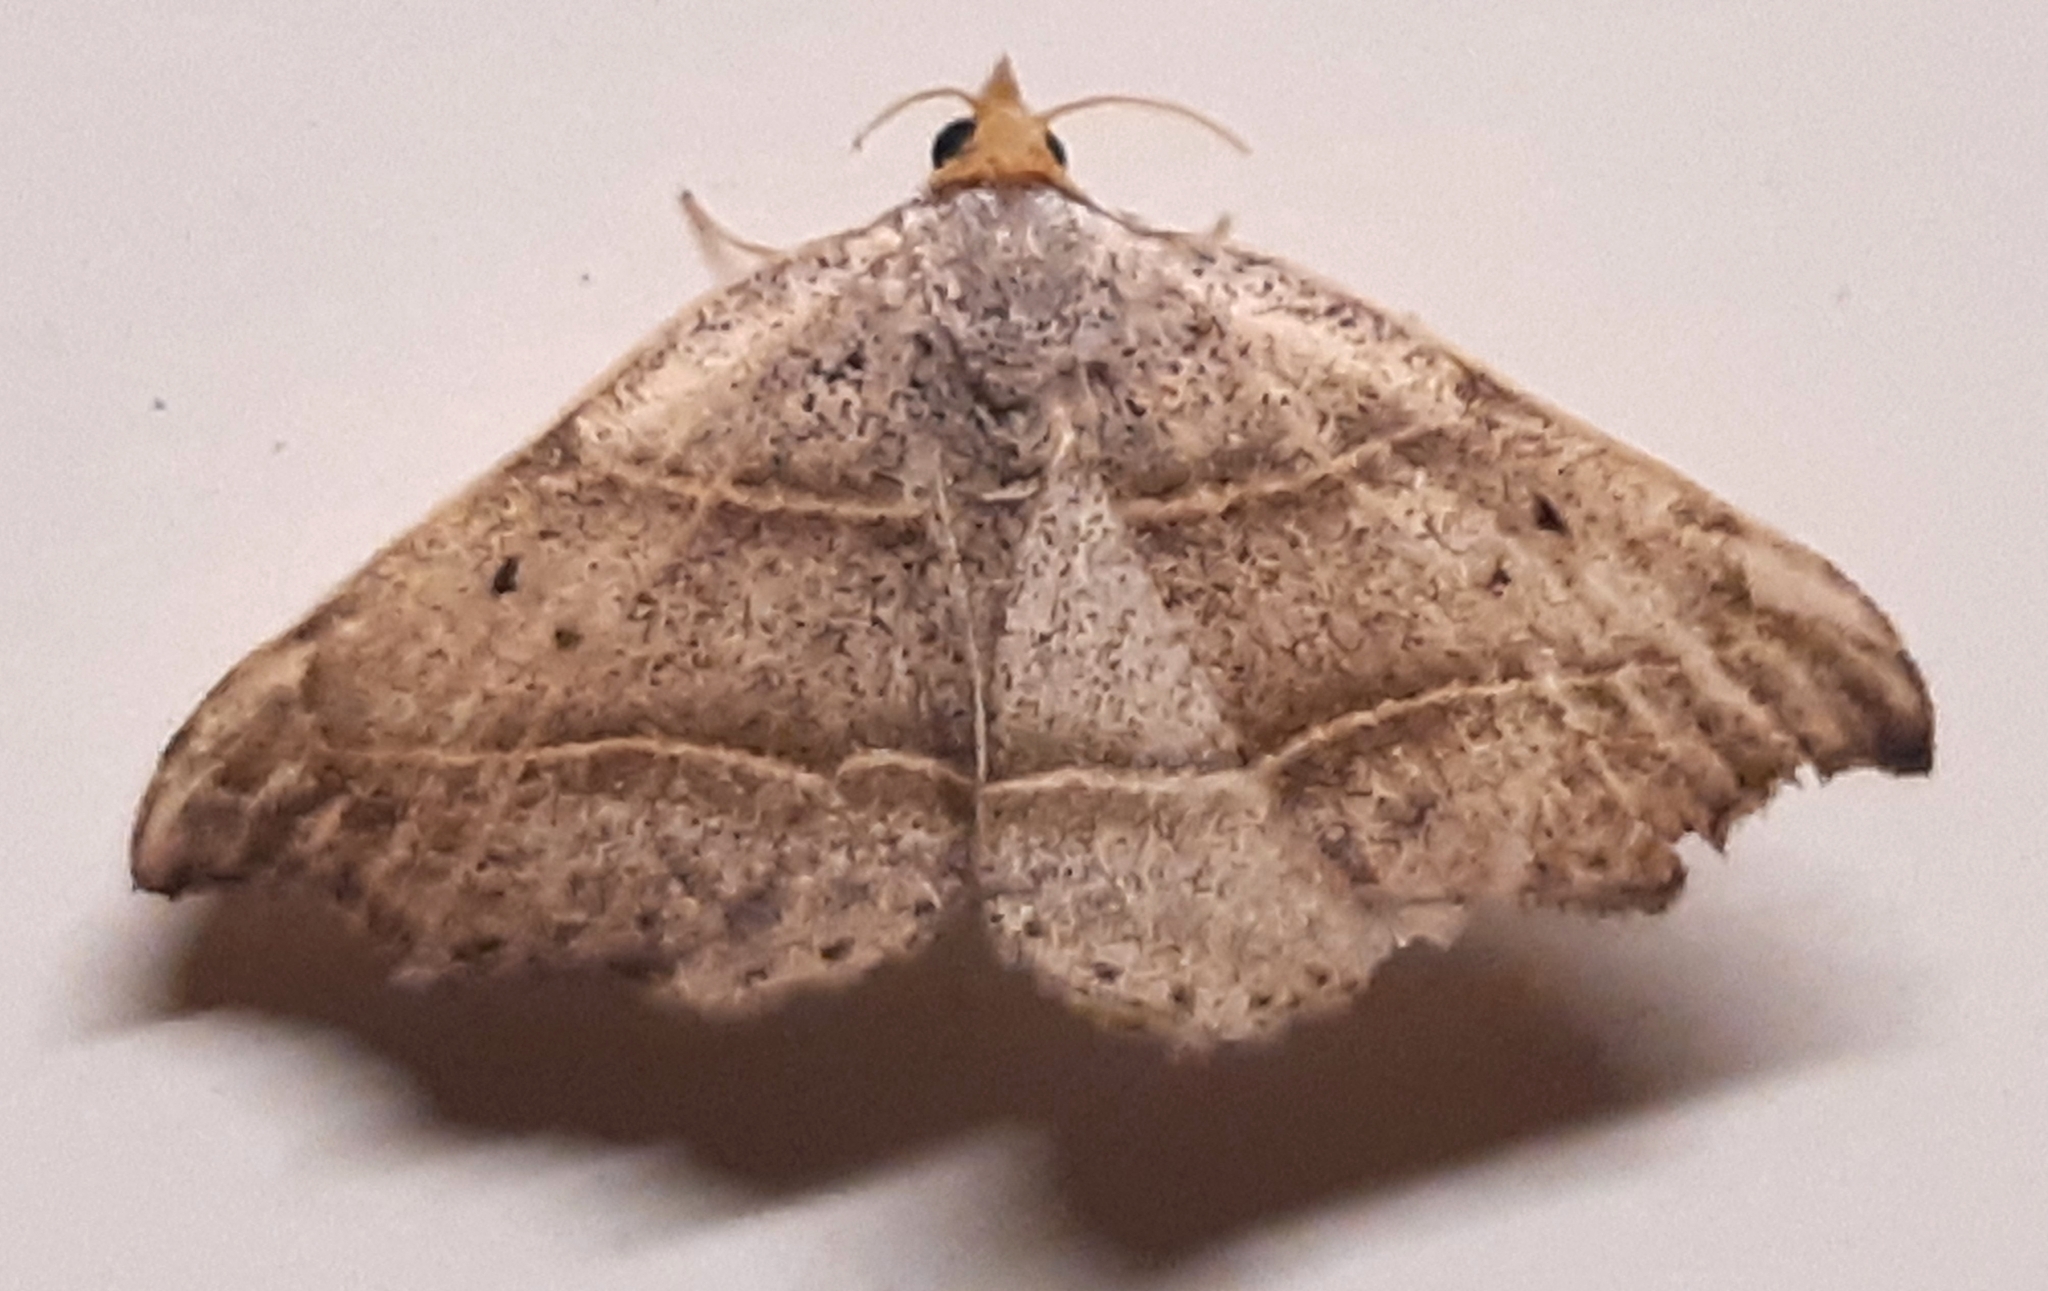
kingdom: Animalia
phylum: Arthropoda
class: Insecta
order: Lepidoptera
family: Erebidae
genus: Laspeyria
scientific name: Laspeyria flexula
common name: Beautiful hook-tip
